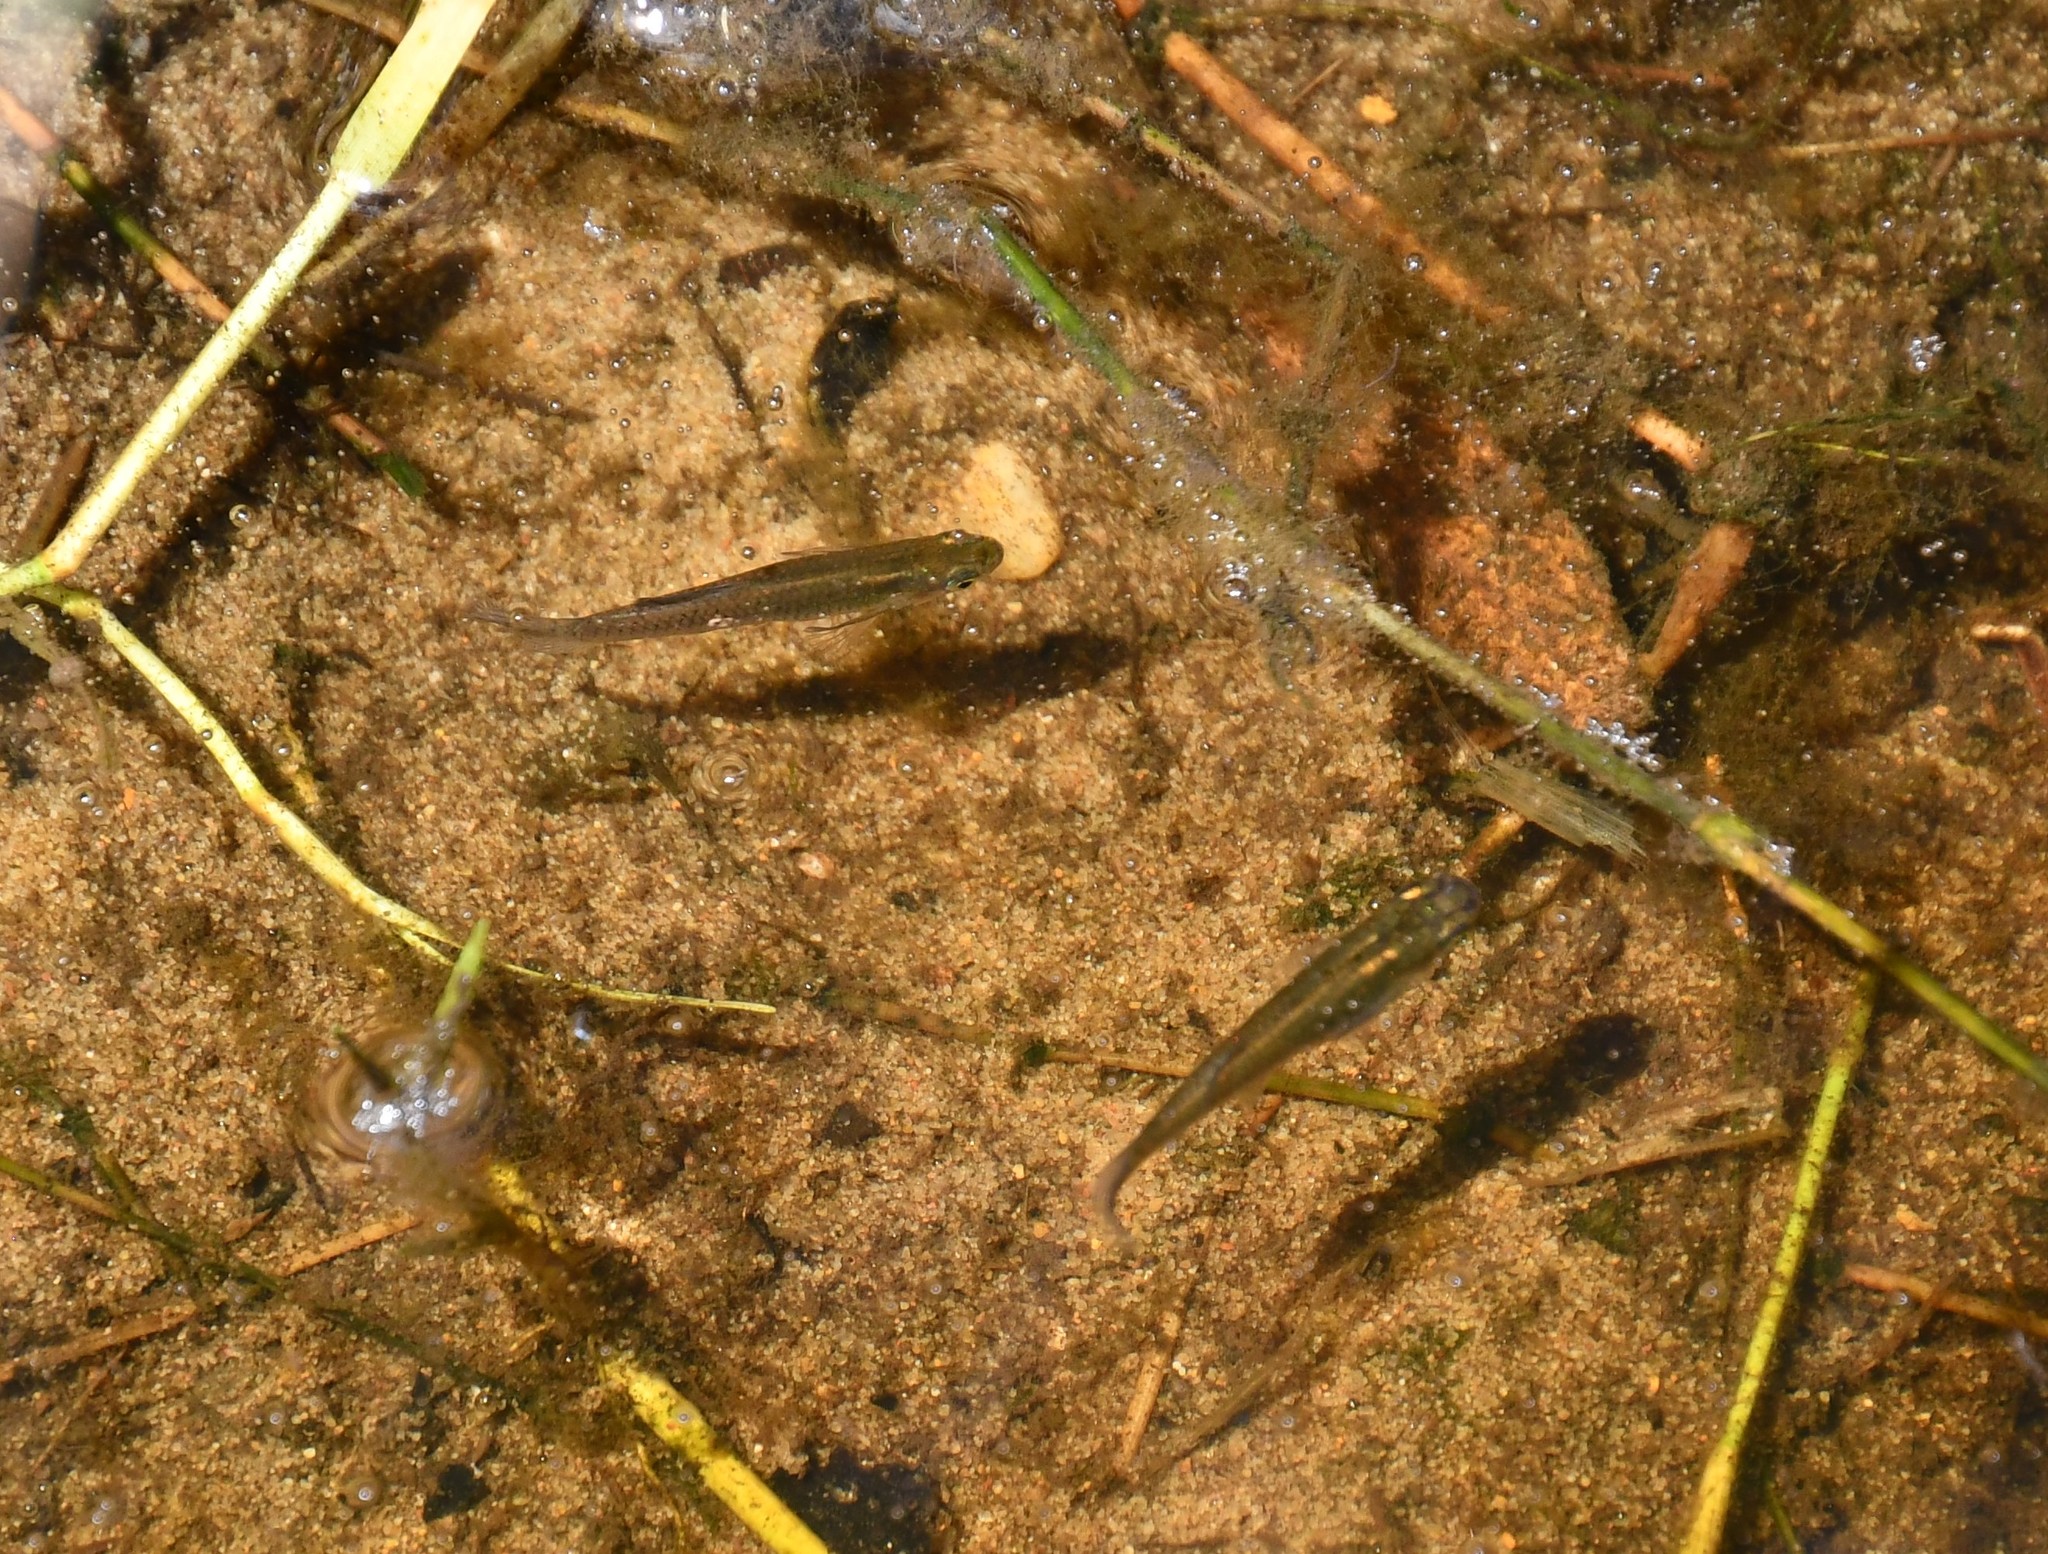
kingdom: Animalia
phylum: Chordata
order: Cyprinodontiformes
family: Poeciliidae
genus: Gambusia
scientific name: Gambusia holbrooki
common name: Eastern mosquitofish
